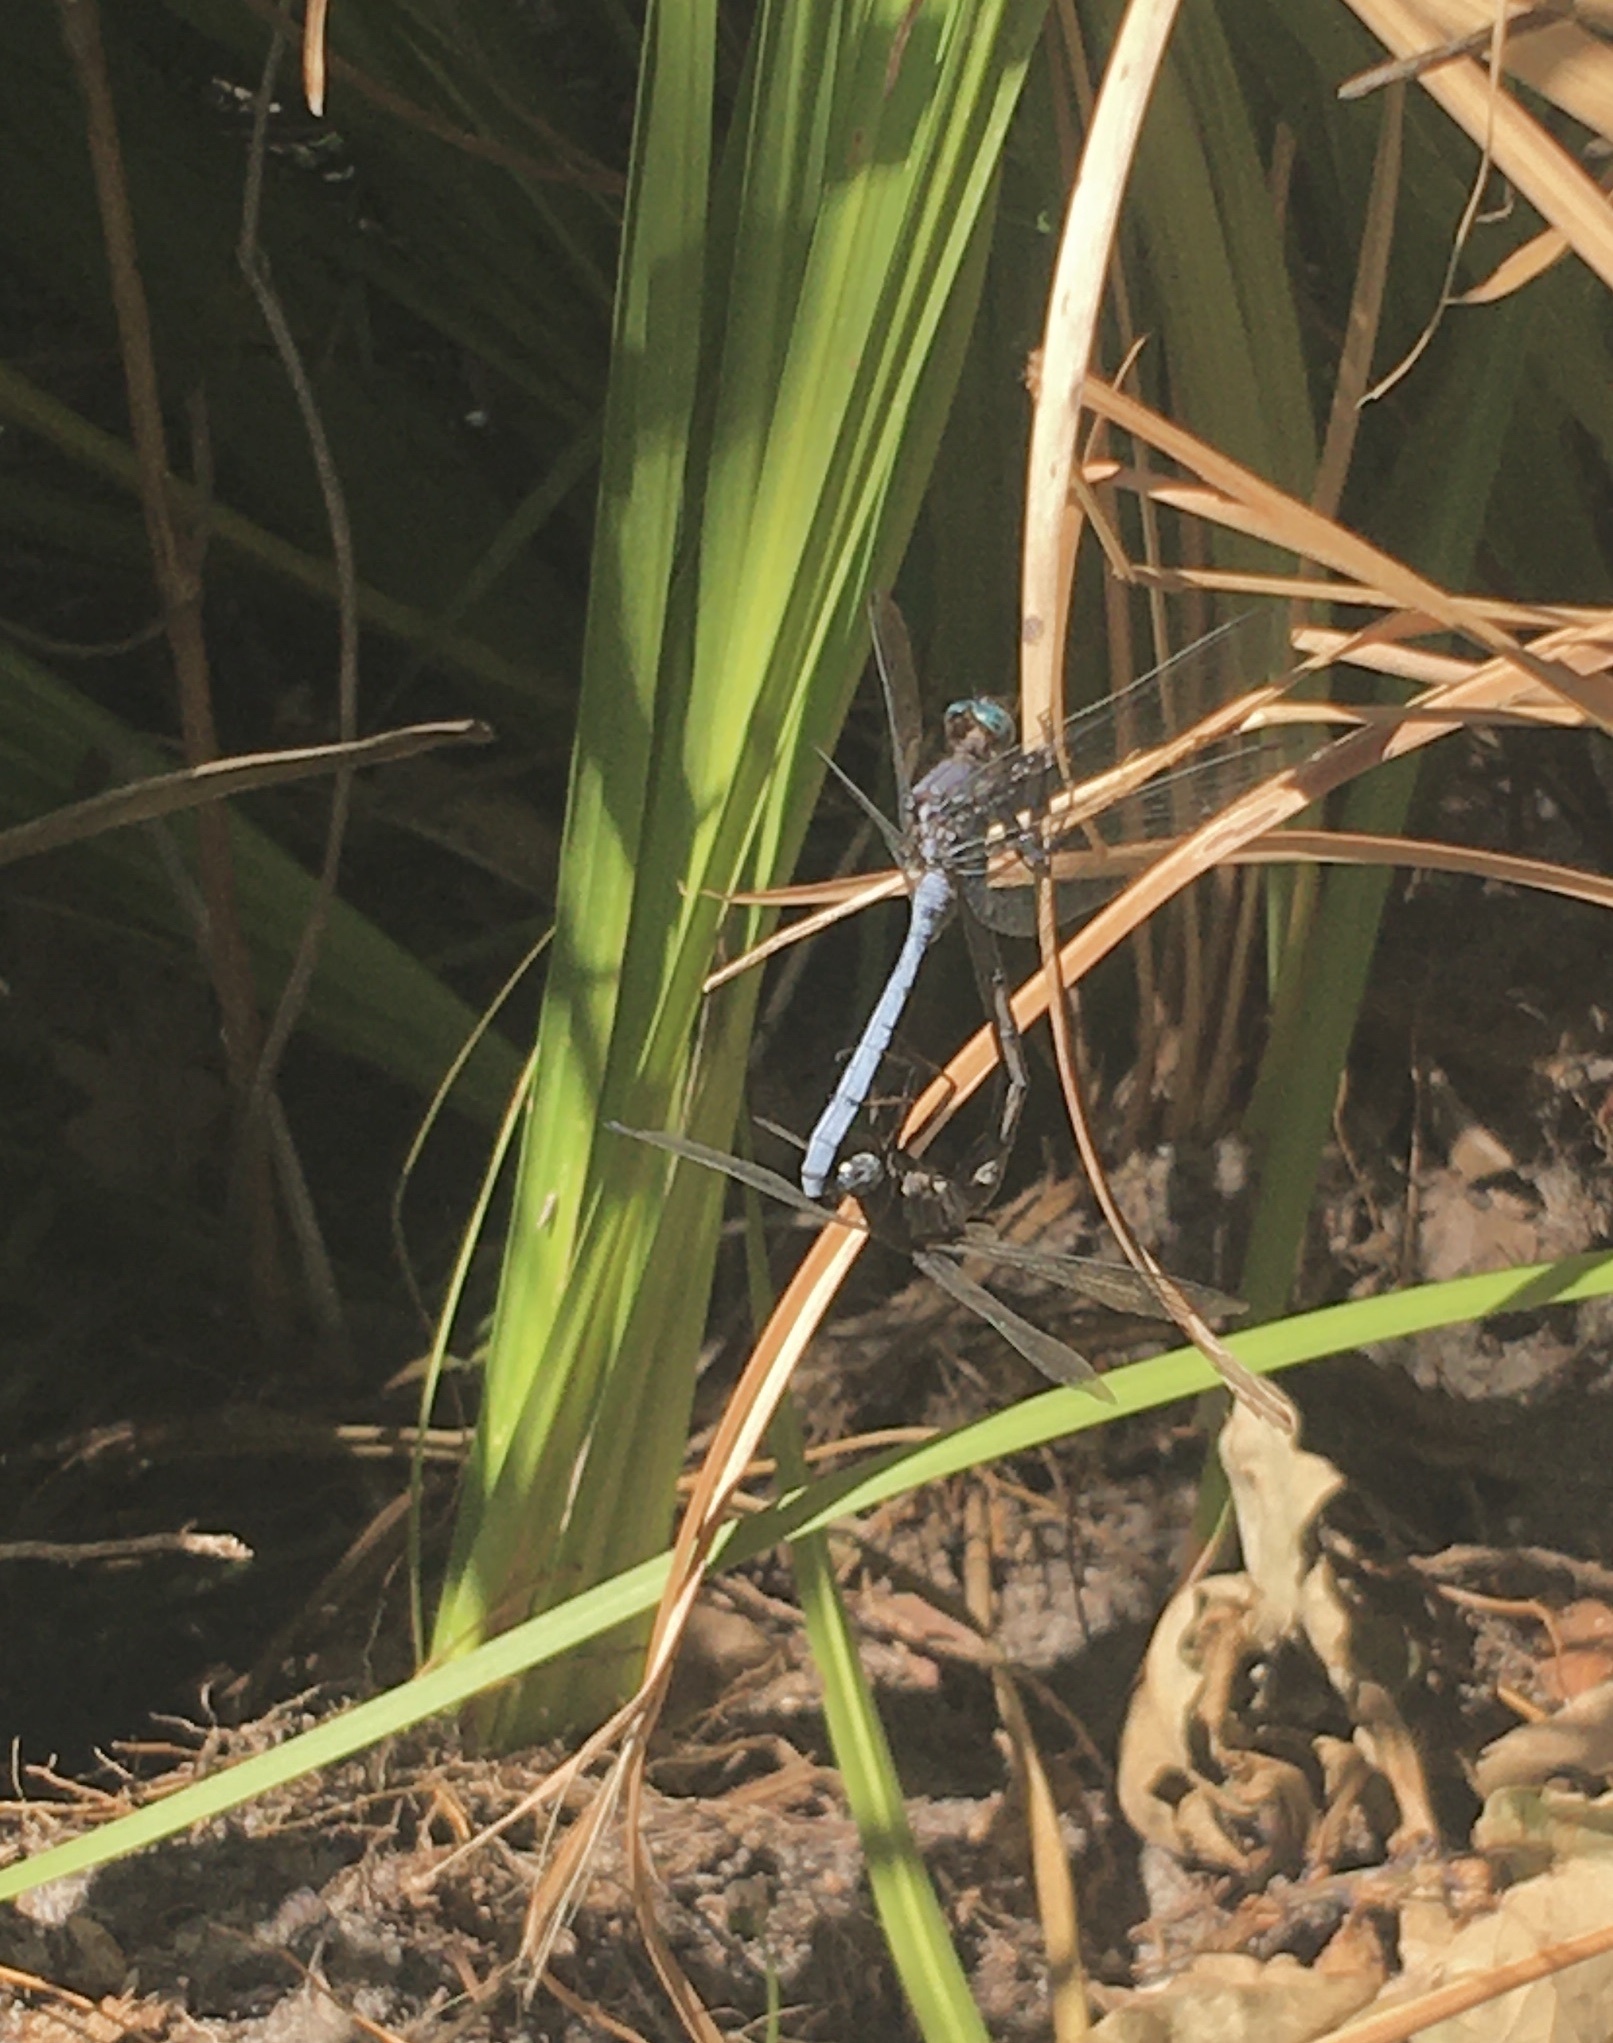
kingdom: Animalia
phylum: Arthropoda
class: Insecta
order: Odonata
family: Libellulidae
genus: Orthetrum
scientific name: Orthetrum julia
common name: Julia skimmer
